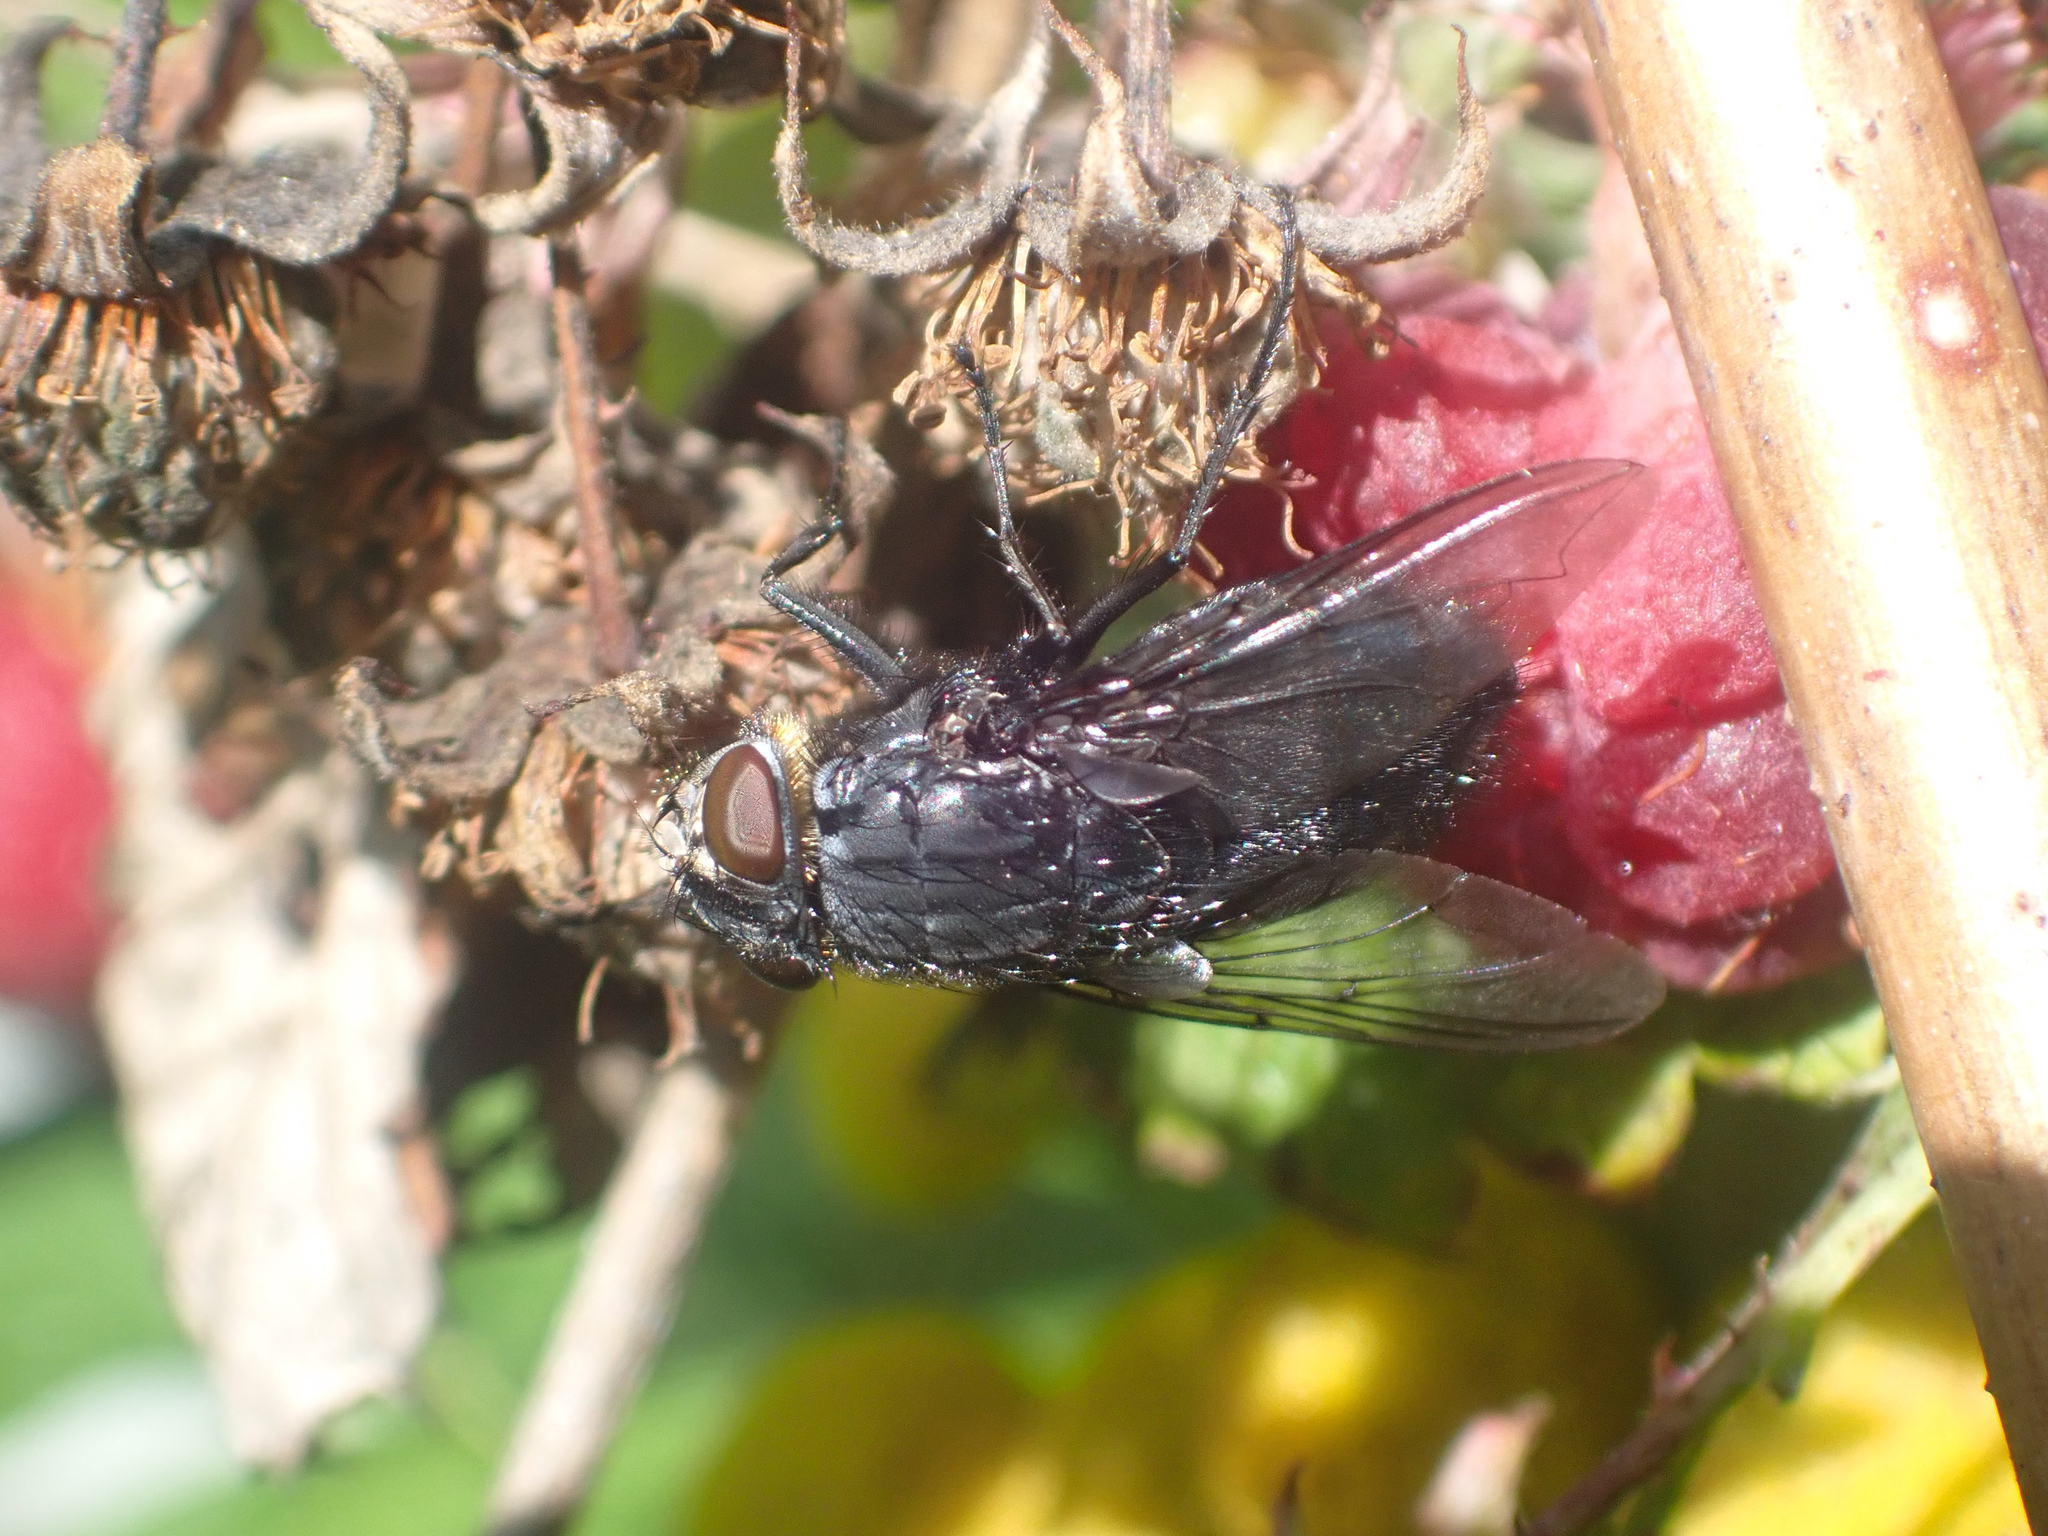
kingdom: Animalia
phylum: Arthropoda
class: Insecta
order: Diptera
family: Calliphoridae
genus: Calliphora
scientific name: Calliphora vomitoria
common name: Blue bottle fly
